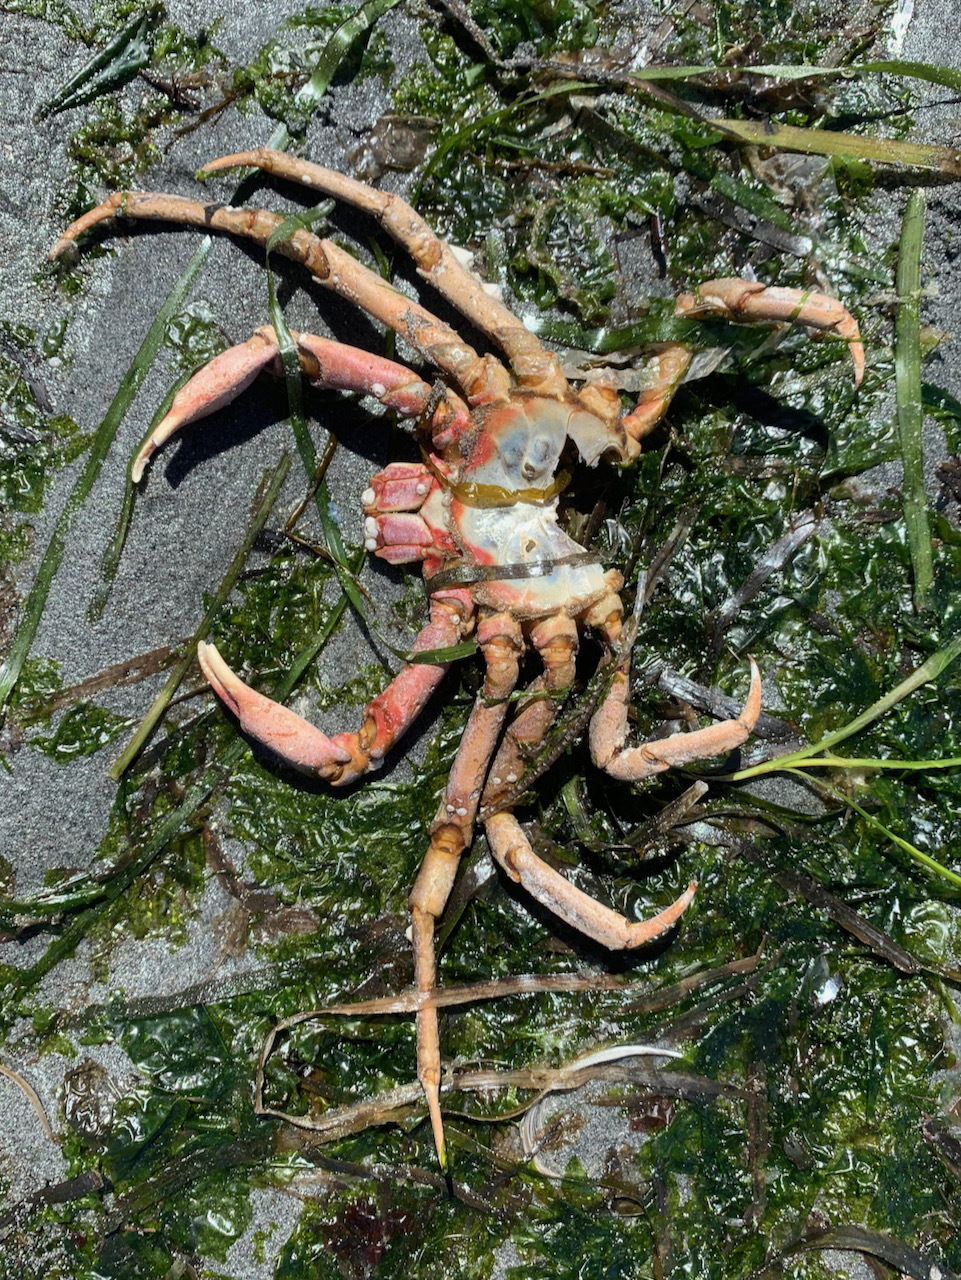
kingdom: Animalia
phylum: Arthropoda
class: Malacostraca
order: Decapoda
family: Epialtidae
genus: Pugettia
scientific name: Pugettia producta
